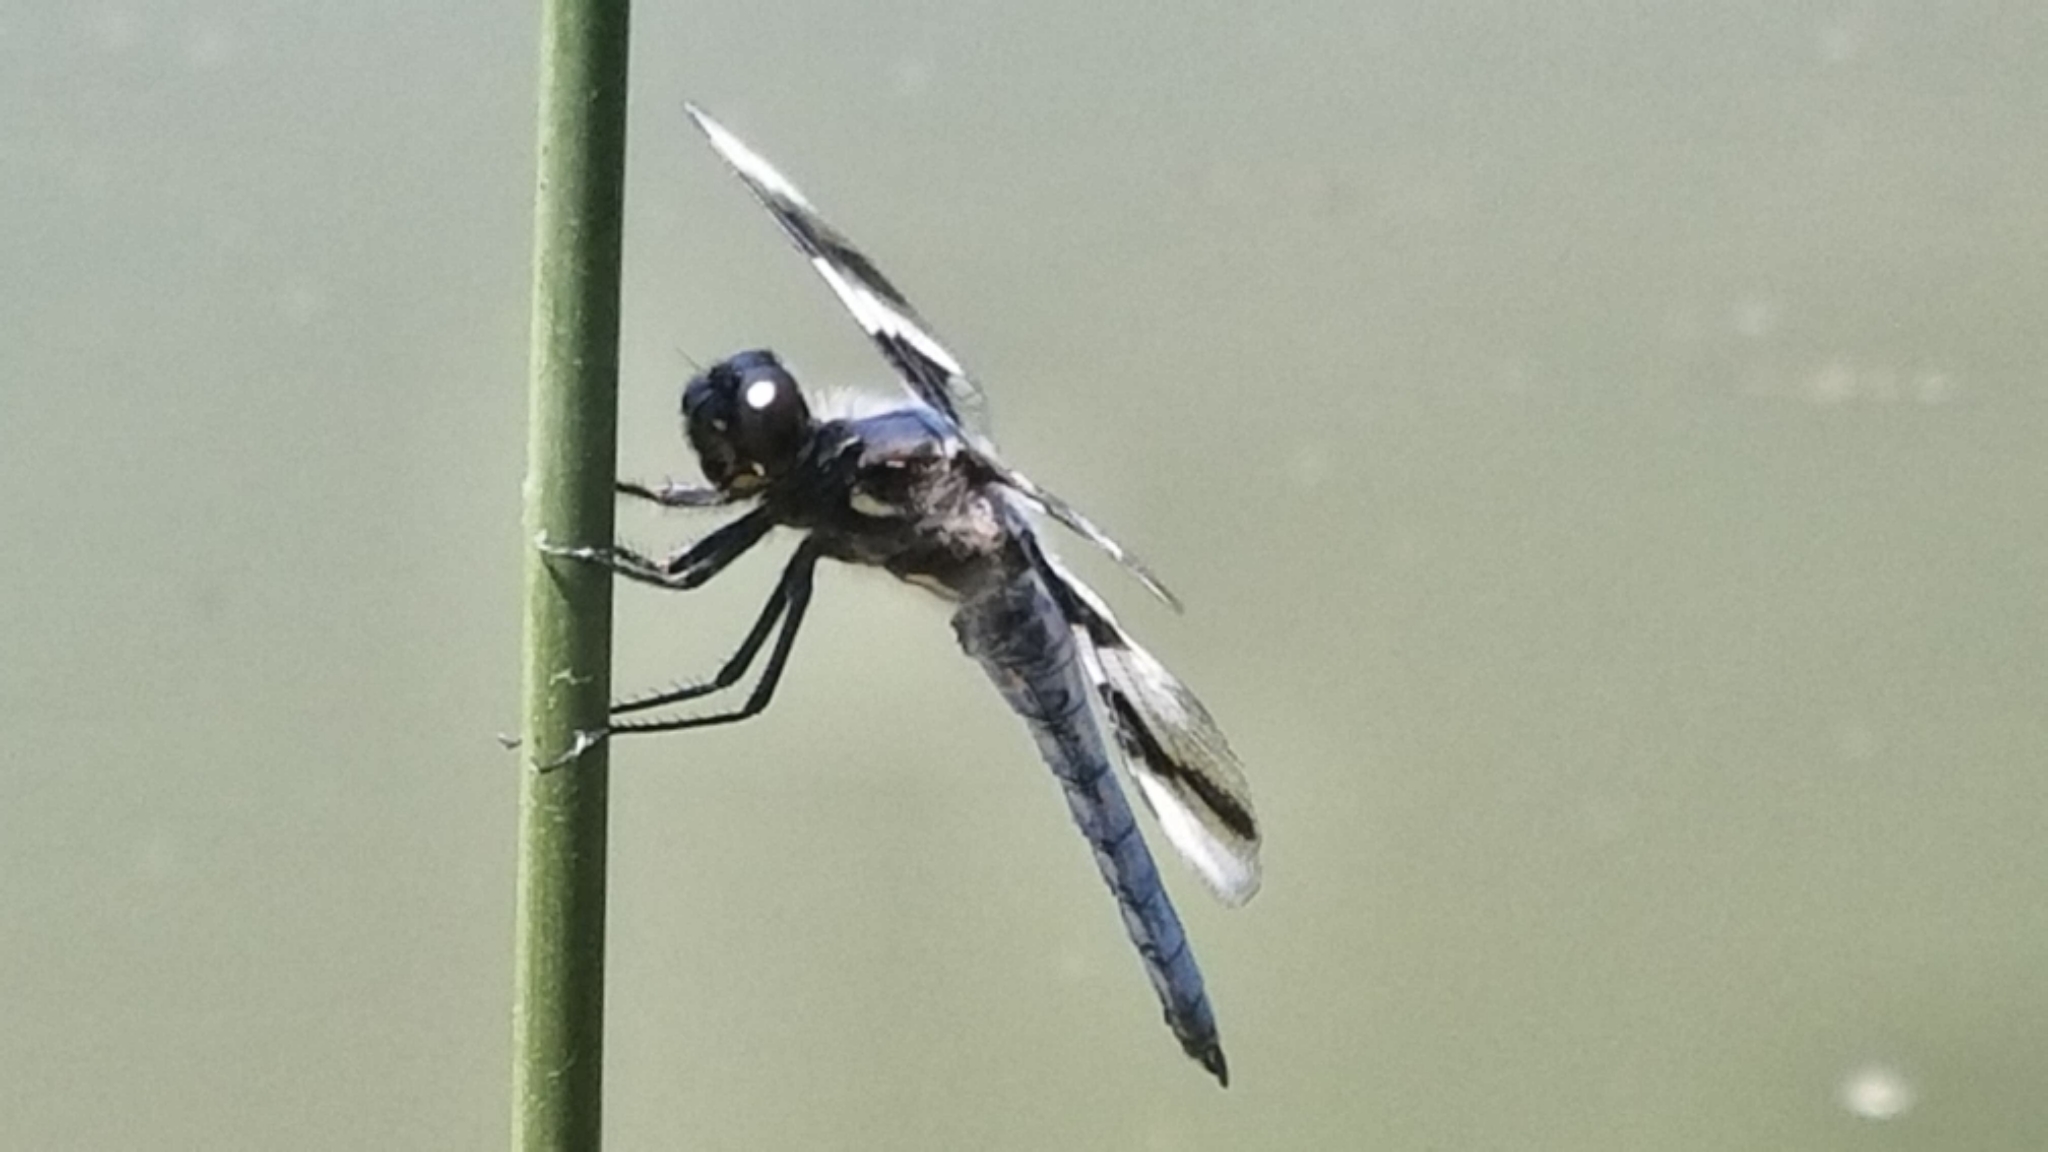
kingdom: Animalia
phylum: Arthropoda
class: Insecta
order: Odonata
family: Libellulidae
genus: Libellula
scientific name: Libellula forensis
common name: Eight-spotted skimmer
